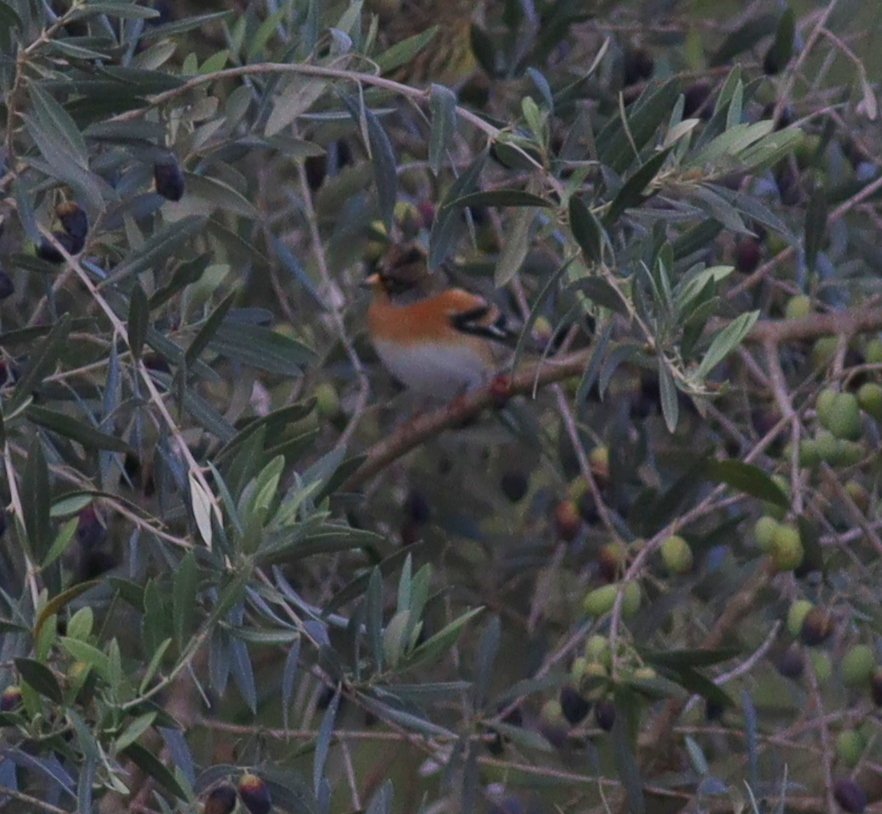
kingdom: Animalia
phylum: Chordata
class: Aves
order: Passeriformes
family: Fringillidae
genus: Fringilla
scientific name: Fringilla montifringilla
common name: Brambling
